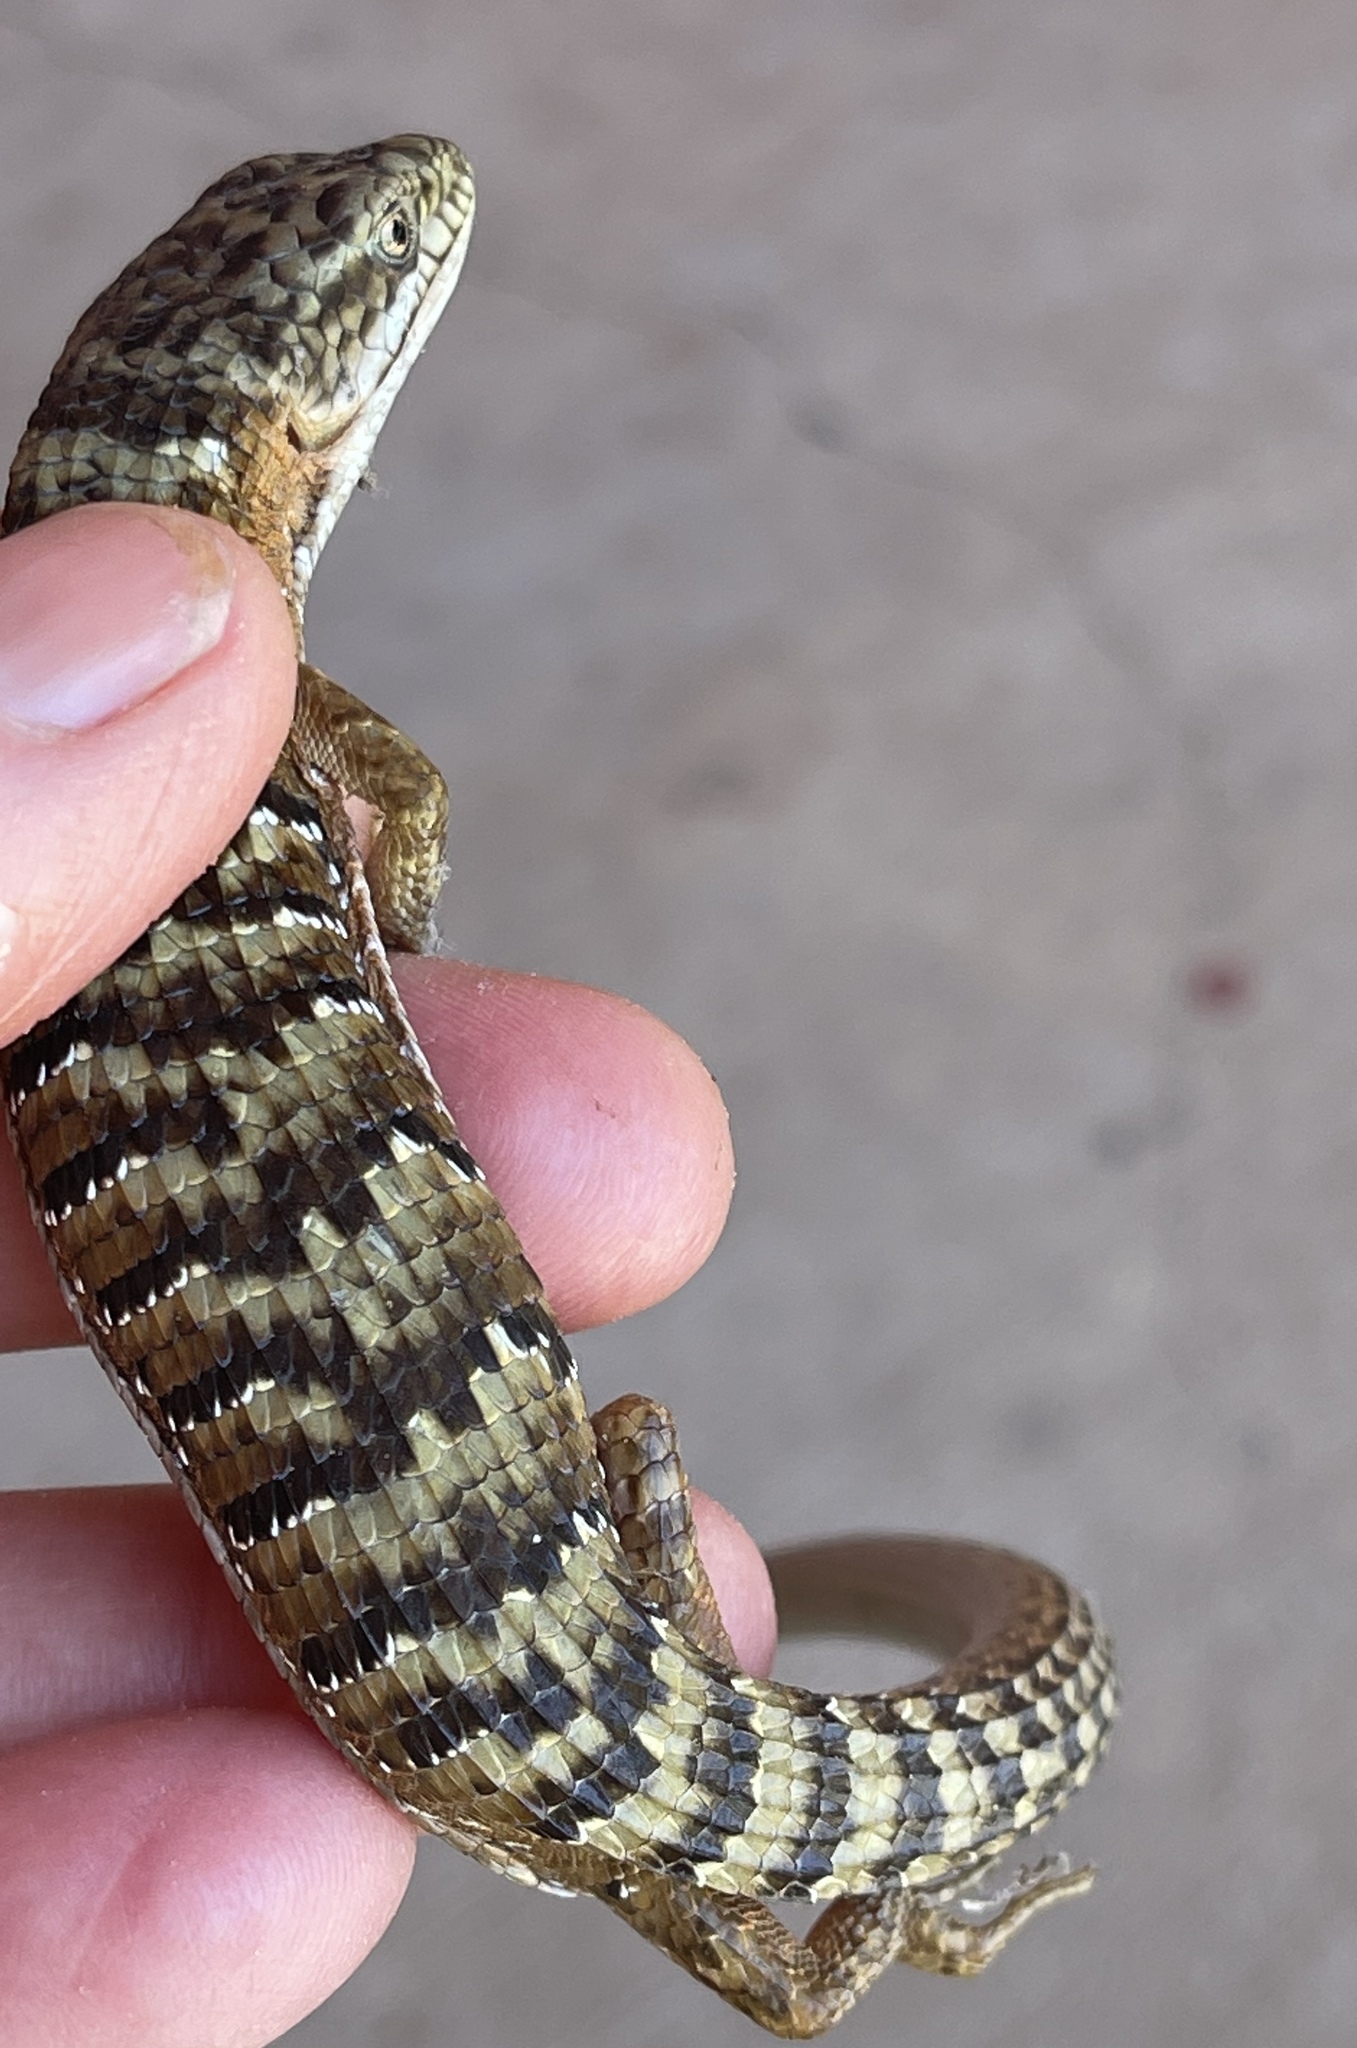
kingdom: Animalia
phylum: Chordata
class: Squamata
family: Anguidae
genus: Elgaria
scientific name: Elgaria multicarinata
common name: Southern alligator lizard
